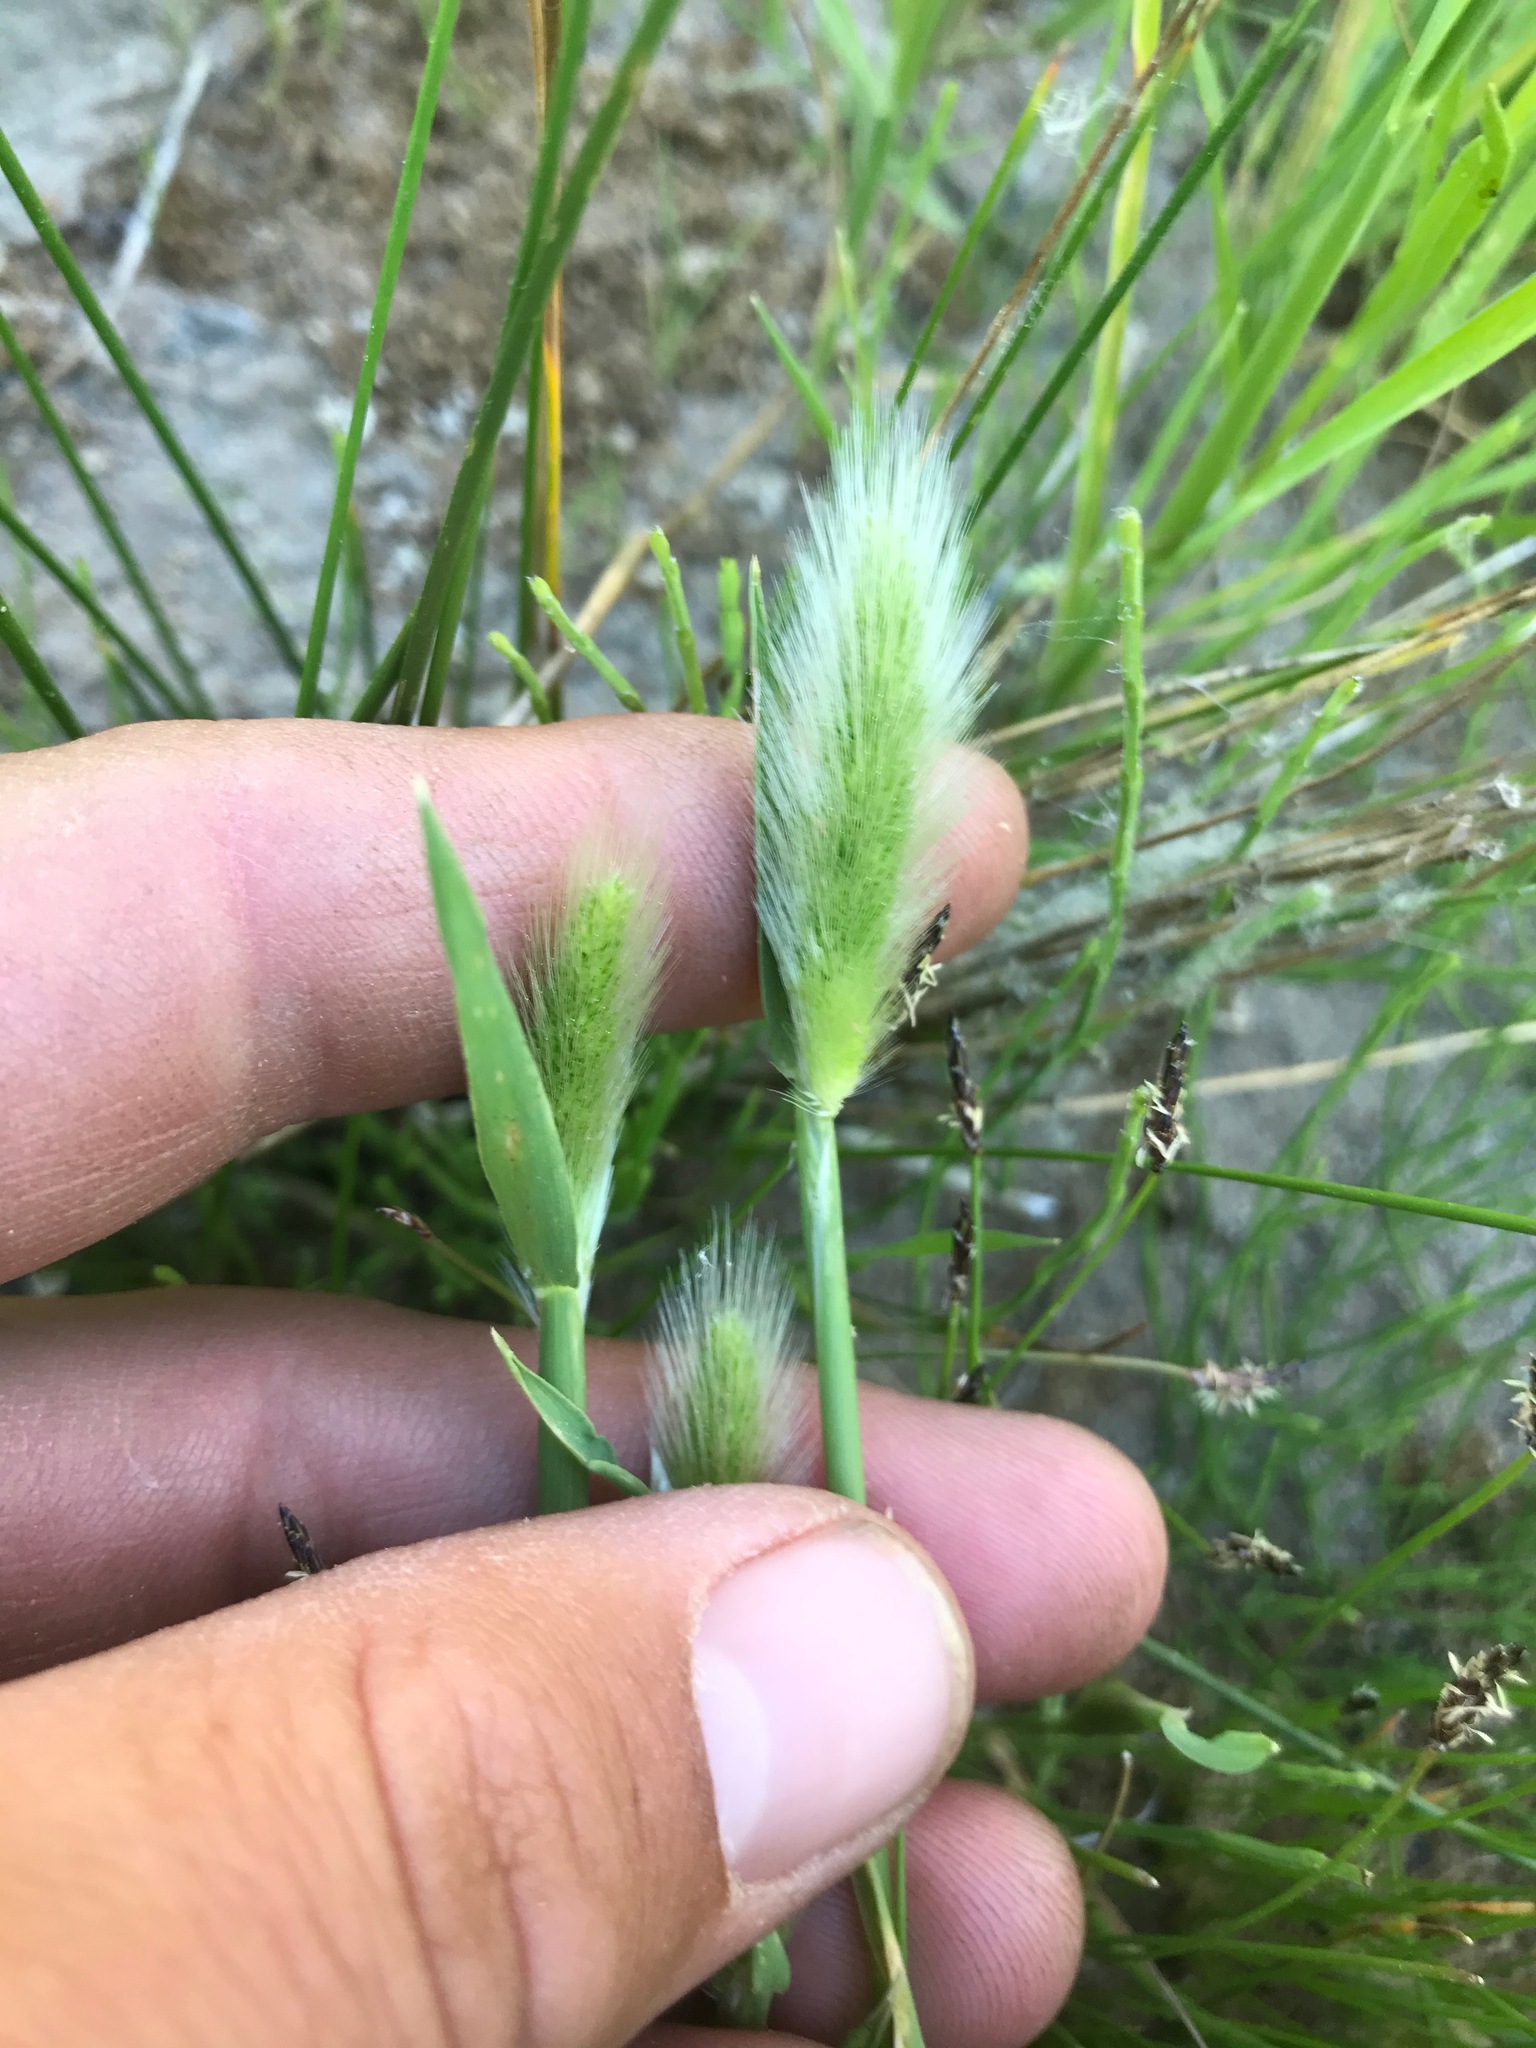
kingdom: Plantae
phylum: Tracheophyta
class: Liliopsida
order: Poales
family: Poaceae
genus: Polypogon
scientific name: Polypogon monspeliensis
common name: Annual rabbitsfoot grass
